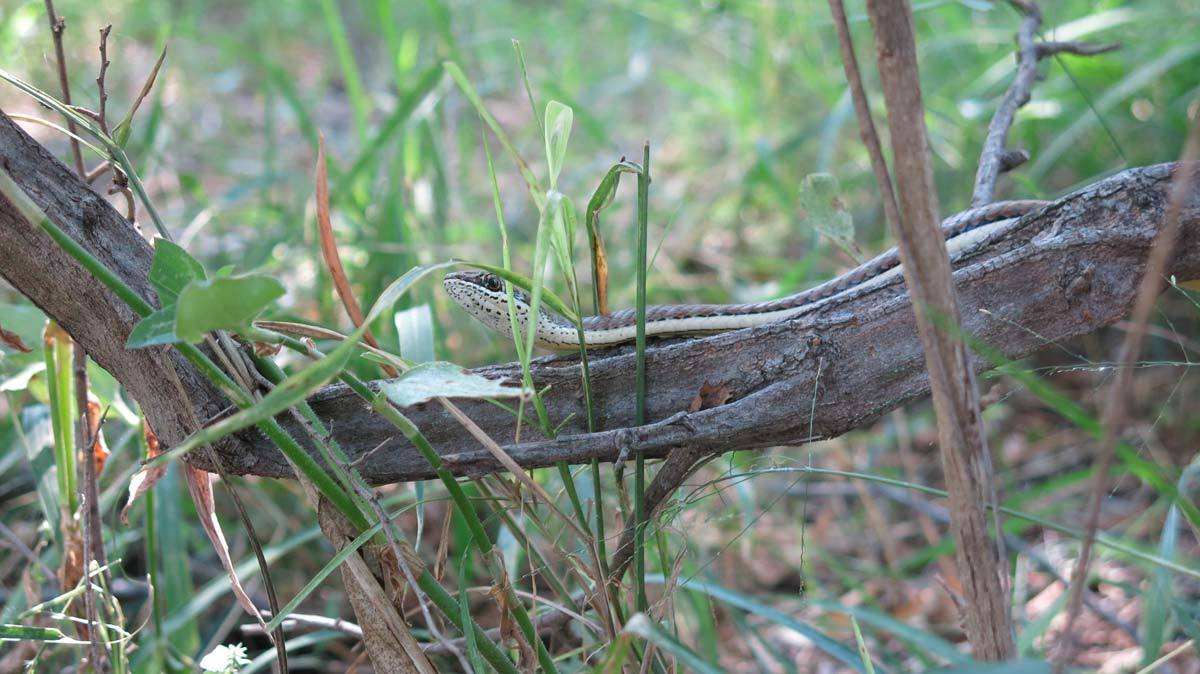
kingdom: Animalia
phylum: Chordata
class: Squamata
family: Psammophiidae
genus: Psammophis
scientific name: Psammophis subtaeniatus
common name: Stripe-bellied sand snake
